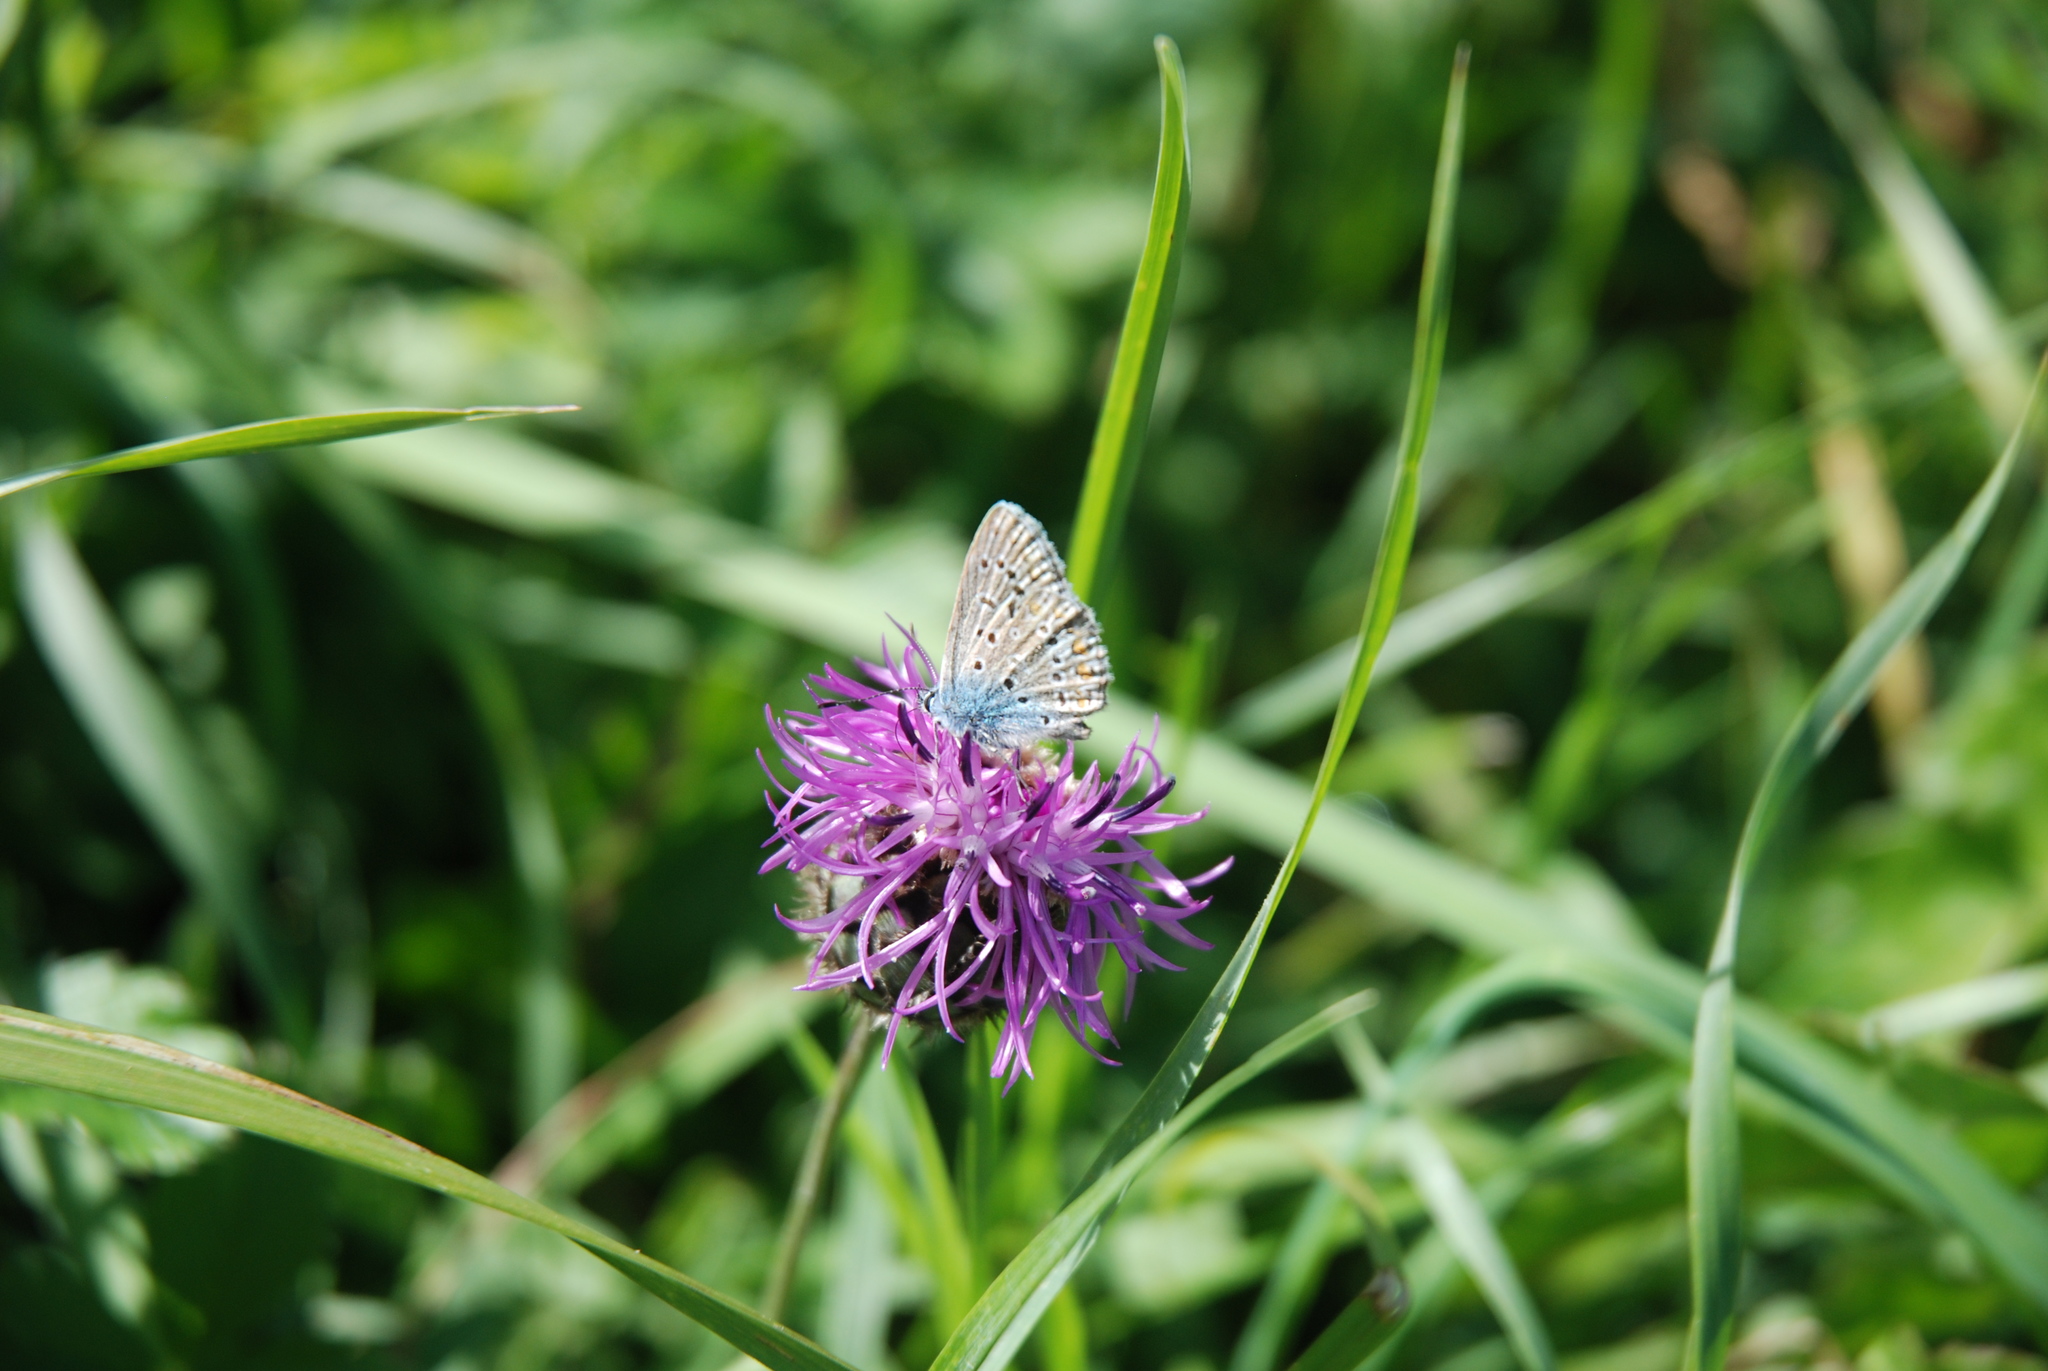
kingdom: Animalia
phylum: Arthropoda
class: Insecta
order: Lepidoptera
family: Lycaenidae
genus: Polyommatus
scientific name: Polyommatus icarus
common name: Common blue
